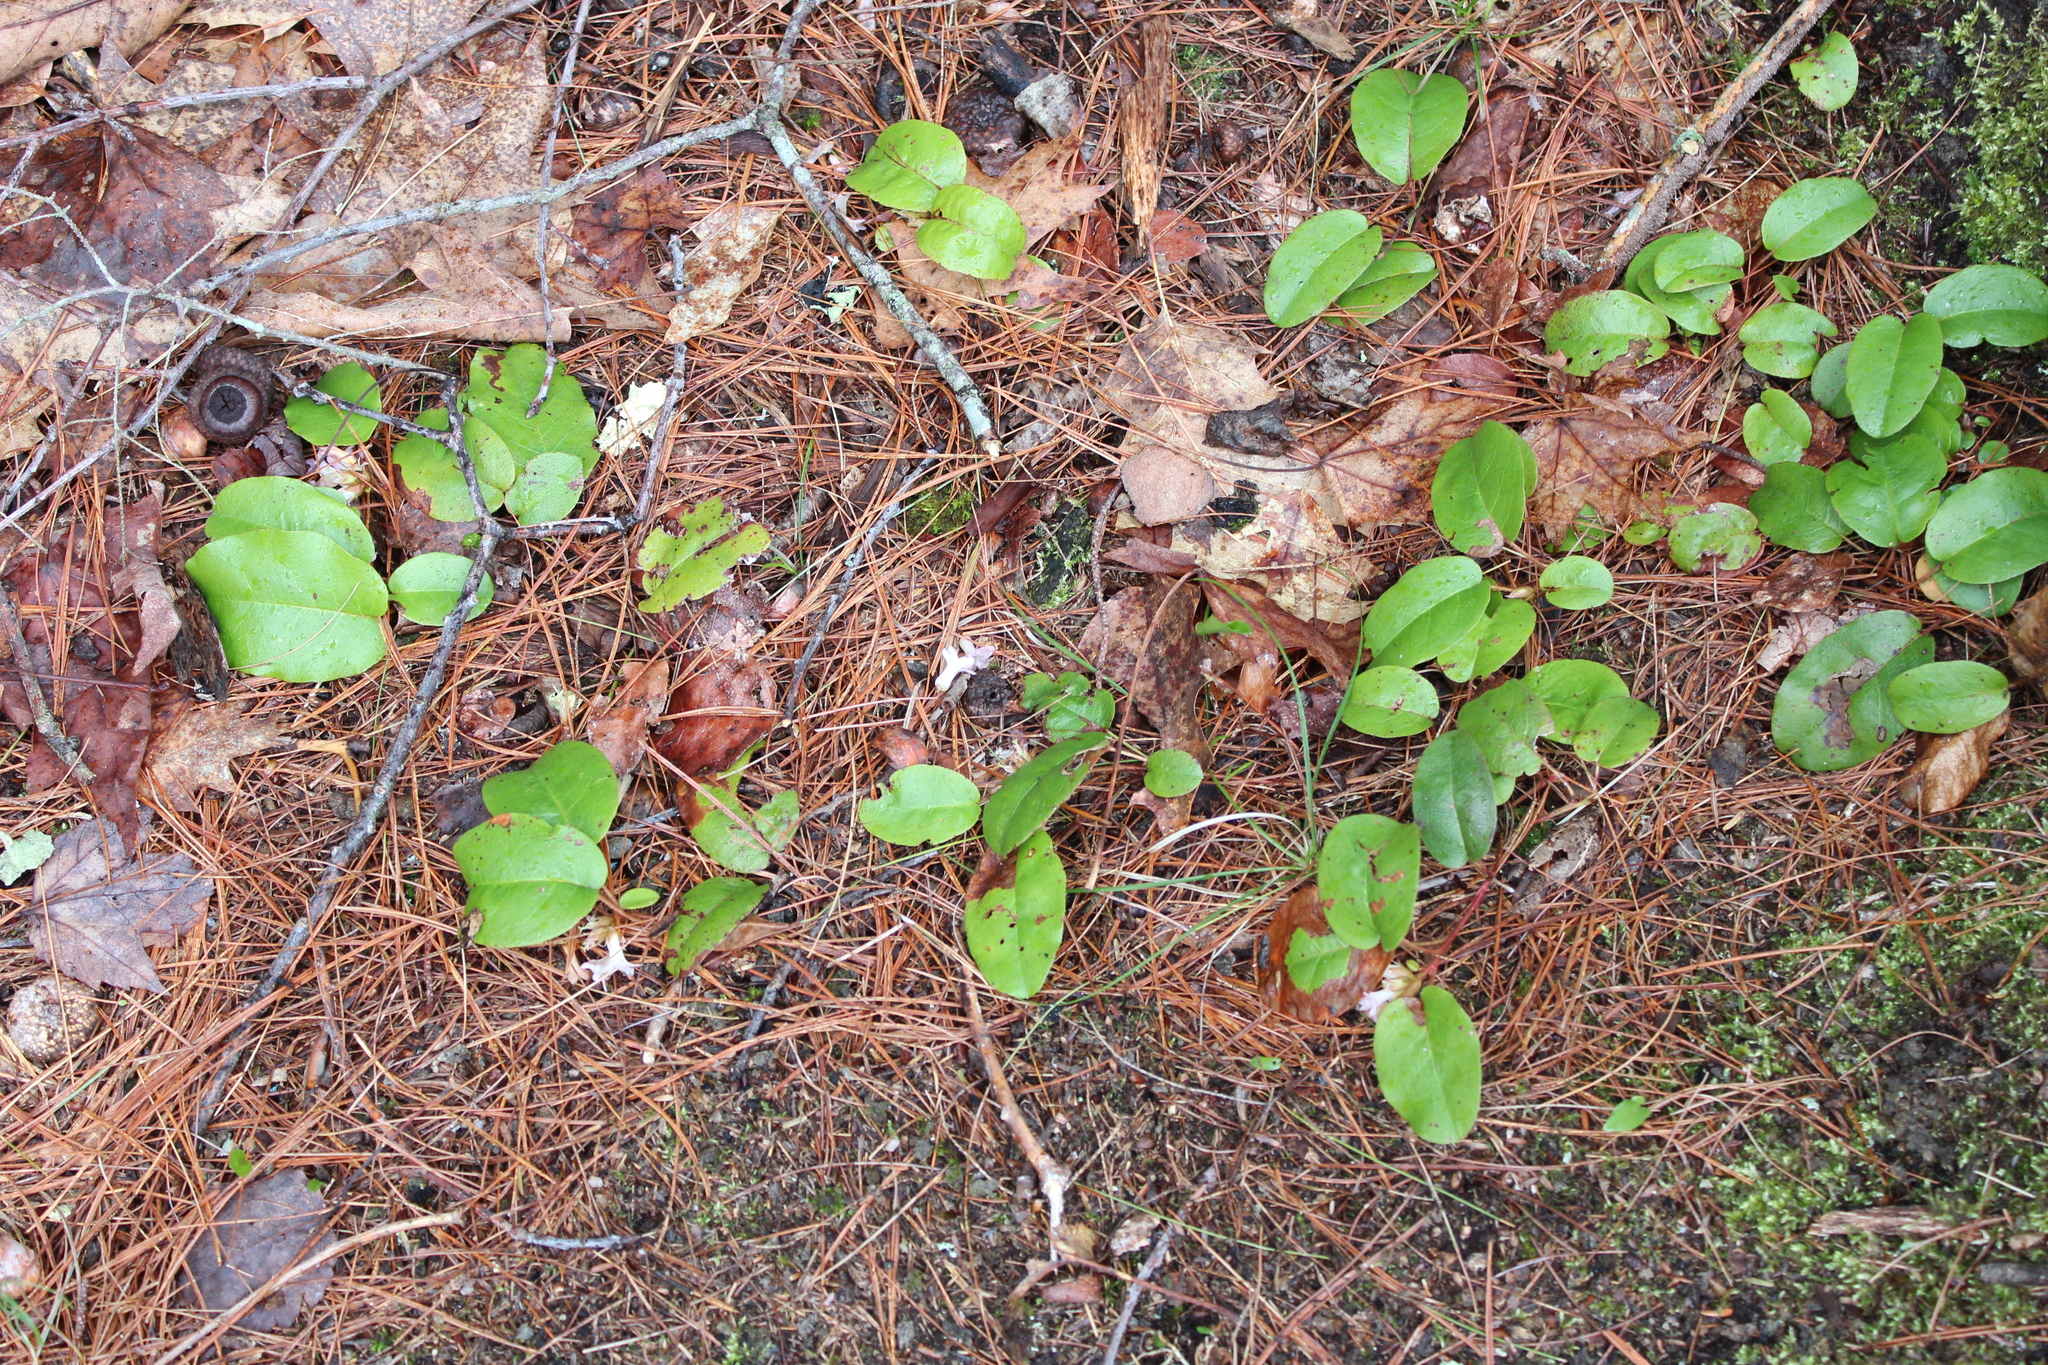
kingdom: Plantae
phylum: Tracheophyta
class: Magnoliopsida
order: Ericales
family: Ericaceae
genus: Epigaea
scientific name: Epigaea repens
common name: Gravelroot
